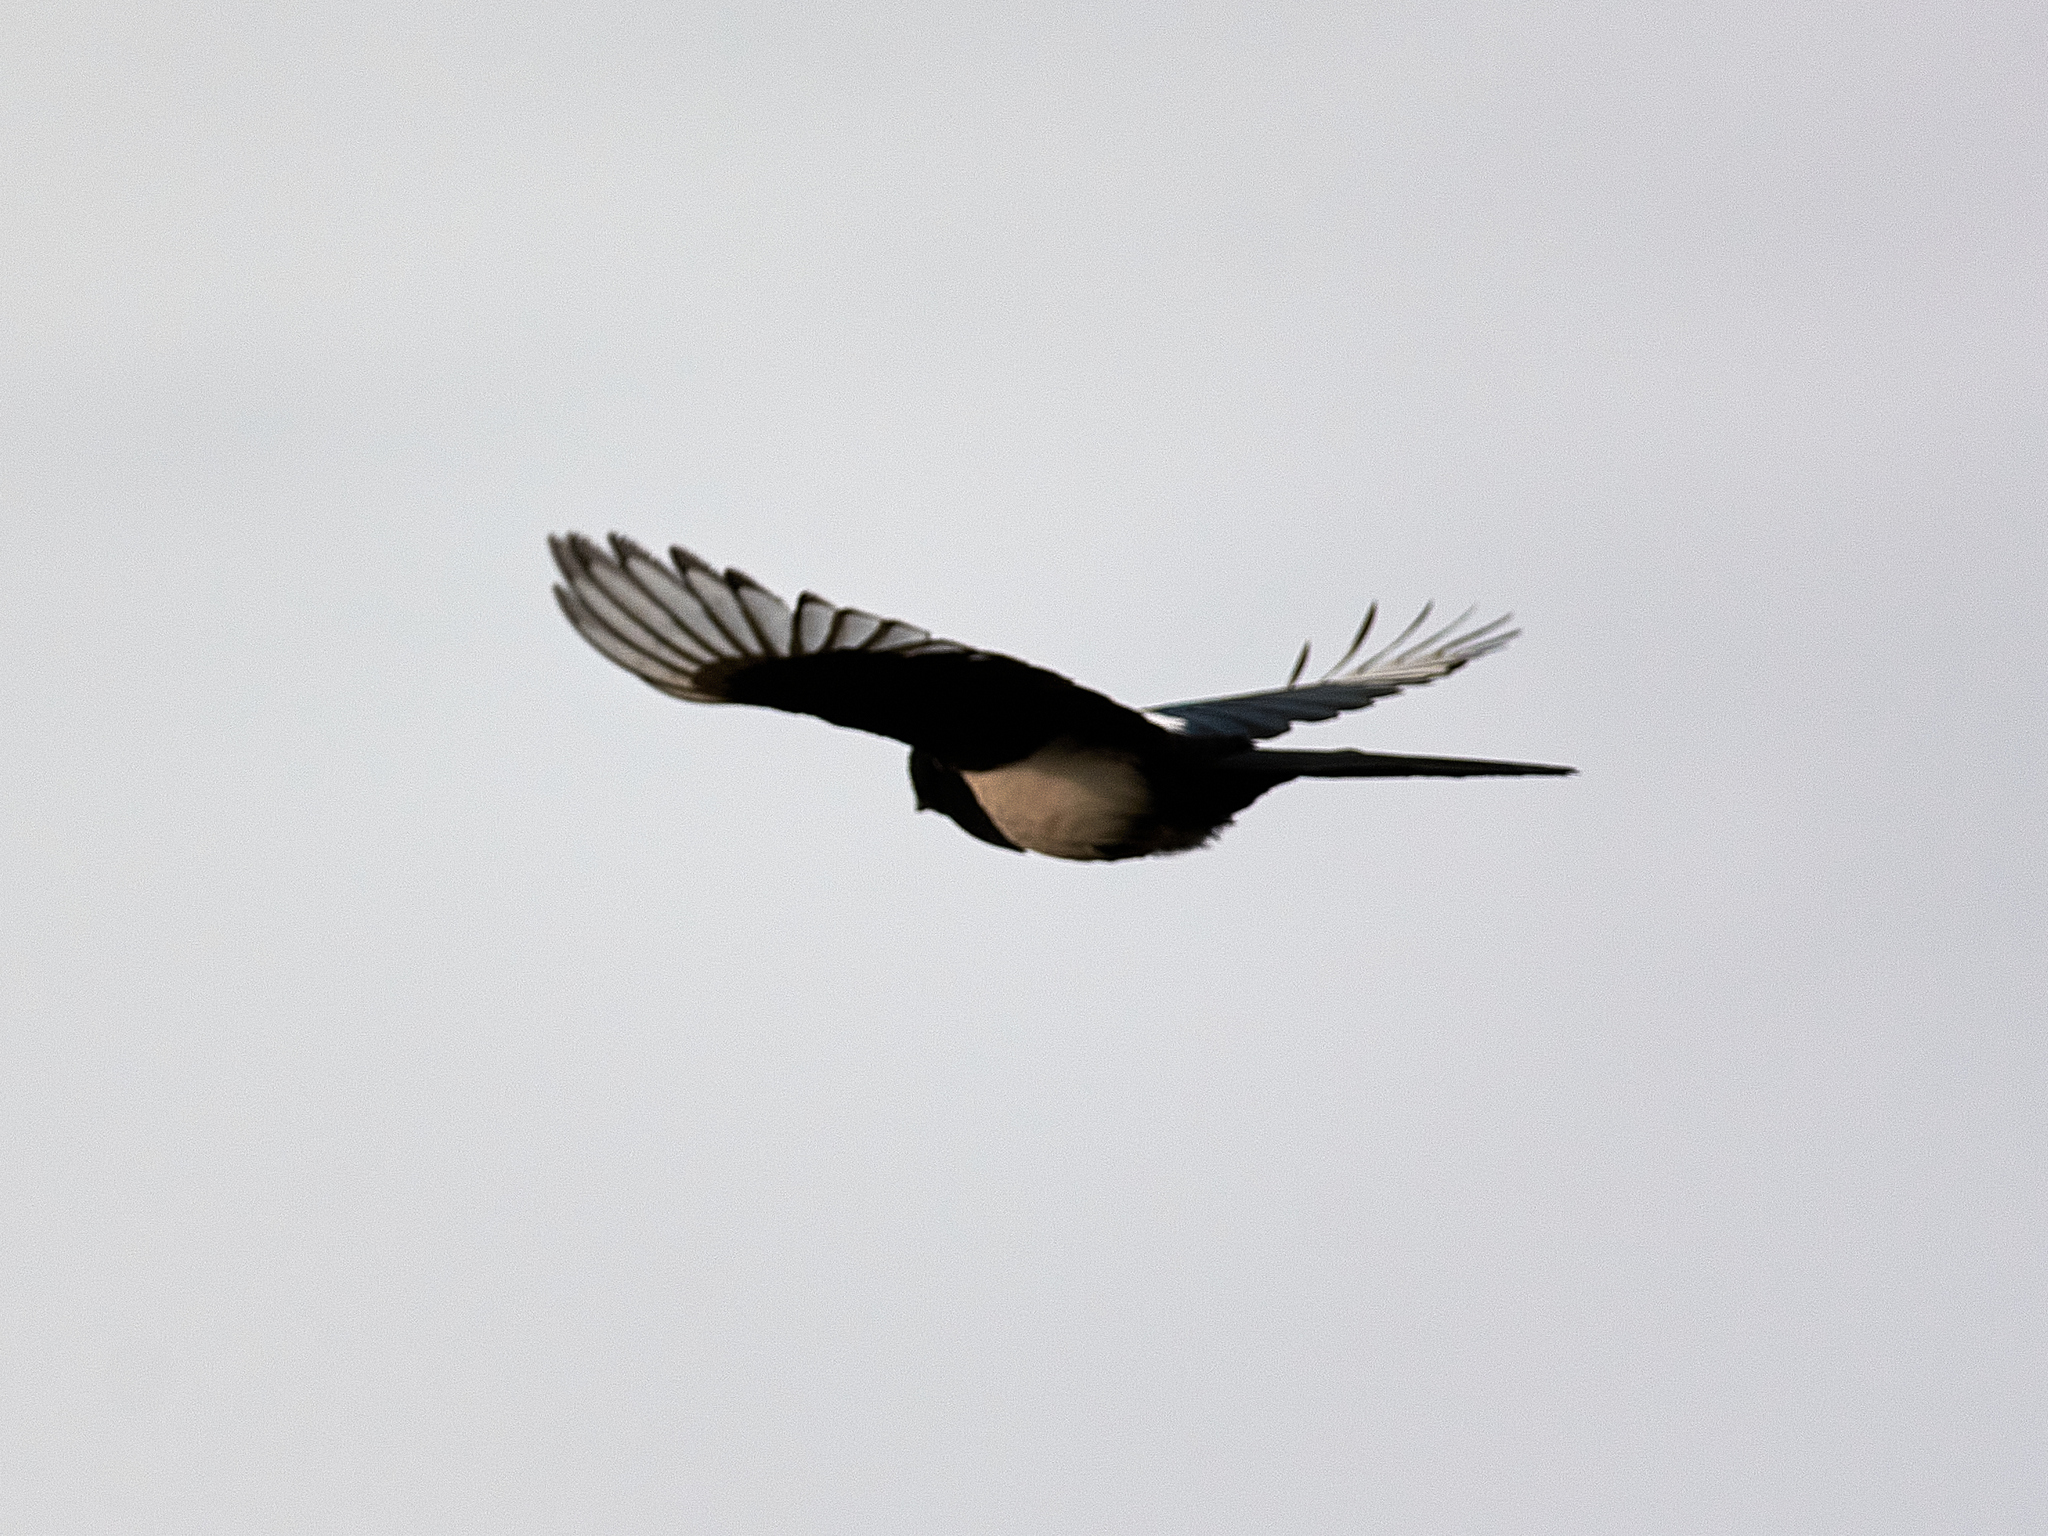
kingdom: Animalia
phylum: Chordata
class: Aves
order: Passeriformes
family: Corvidae
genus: Pica
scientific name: Pica pica
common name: Eurasian magpie
